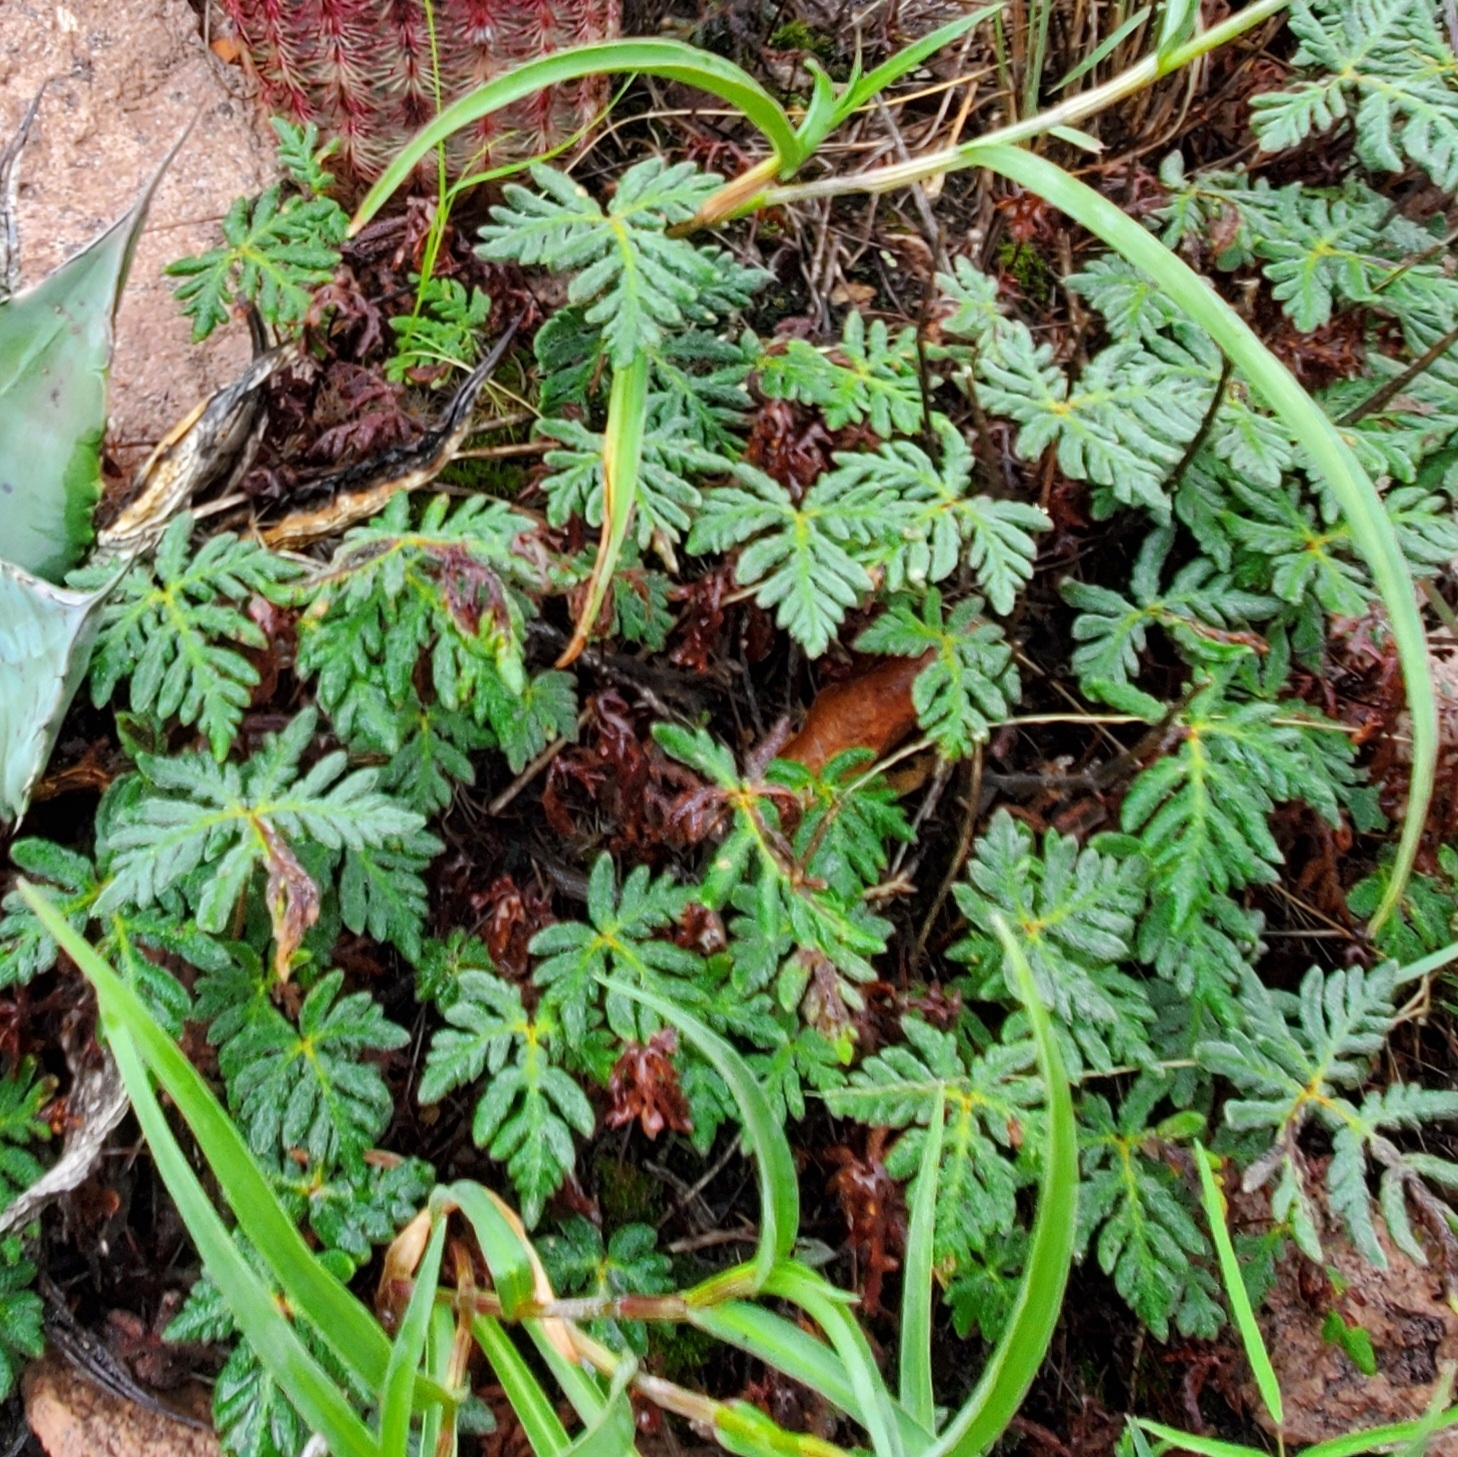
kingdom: Plantae
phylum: Tracheophyta
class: Polypodiopsida
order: Polypodiales
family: Pteridaceae
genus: Bommeria
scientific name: Bommeria hispida
